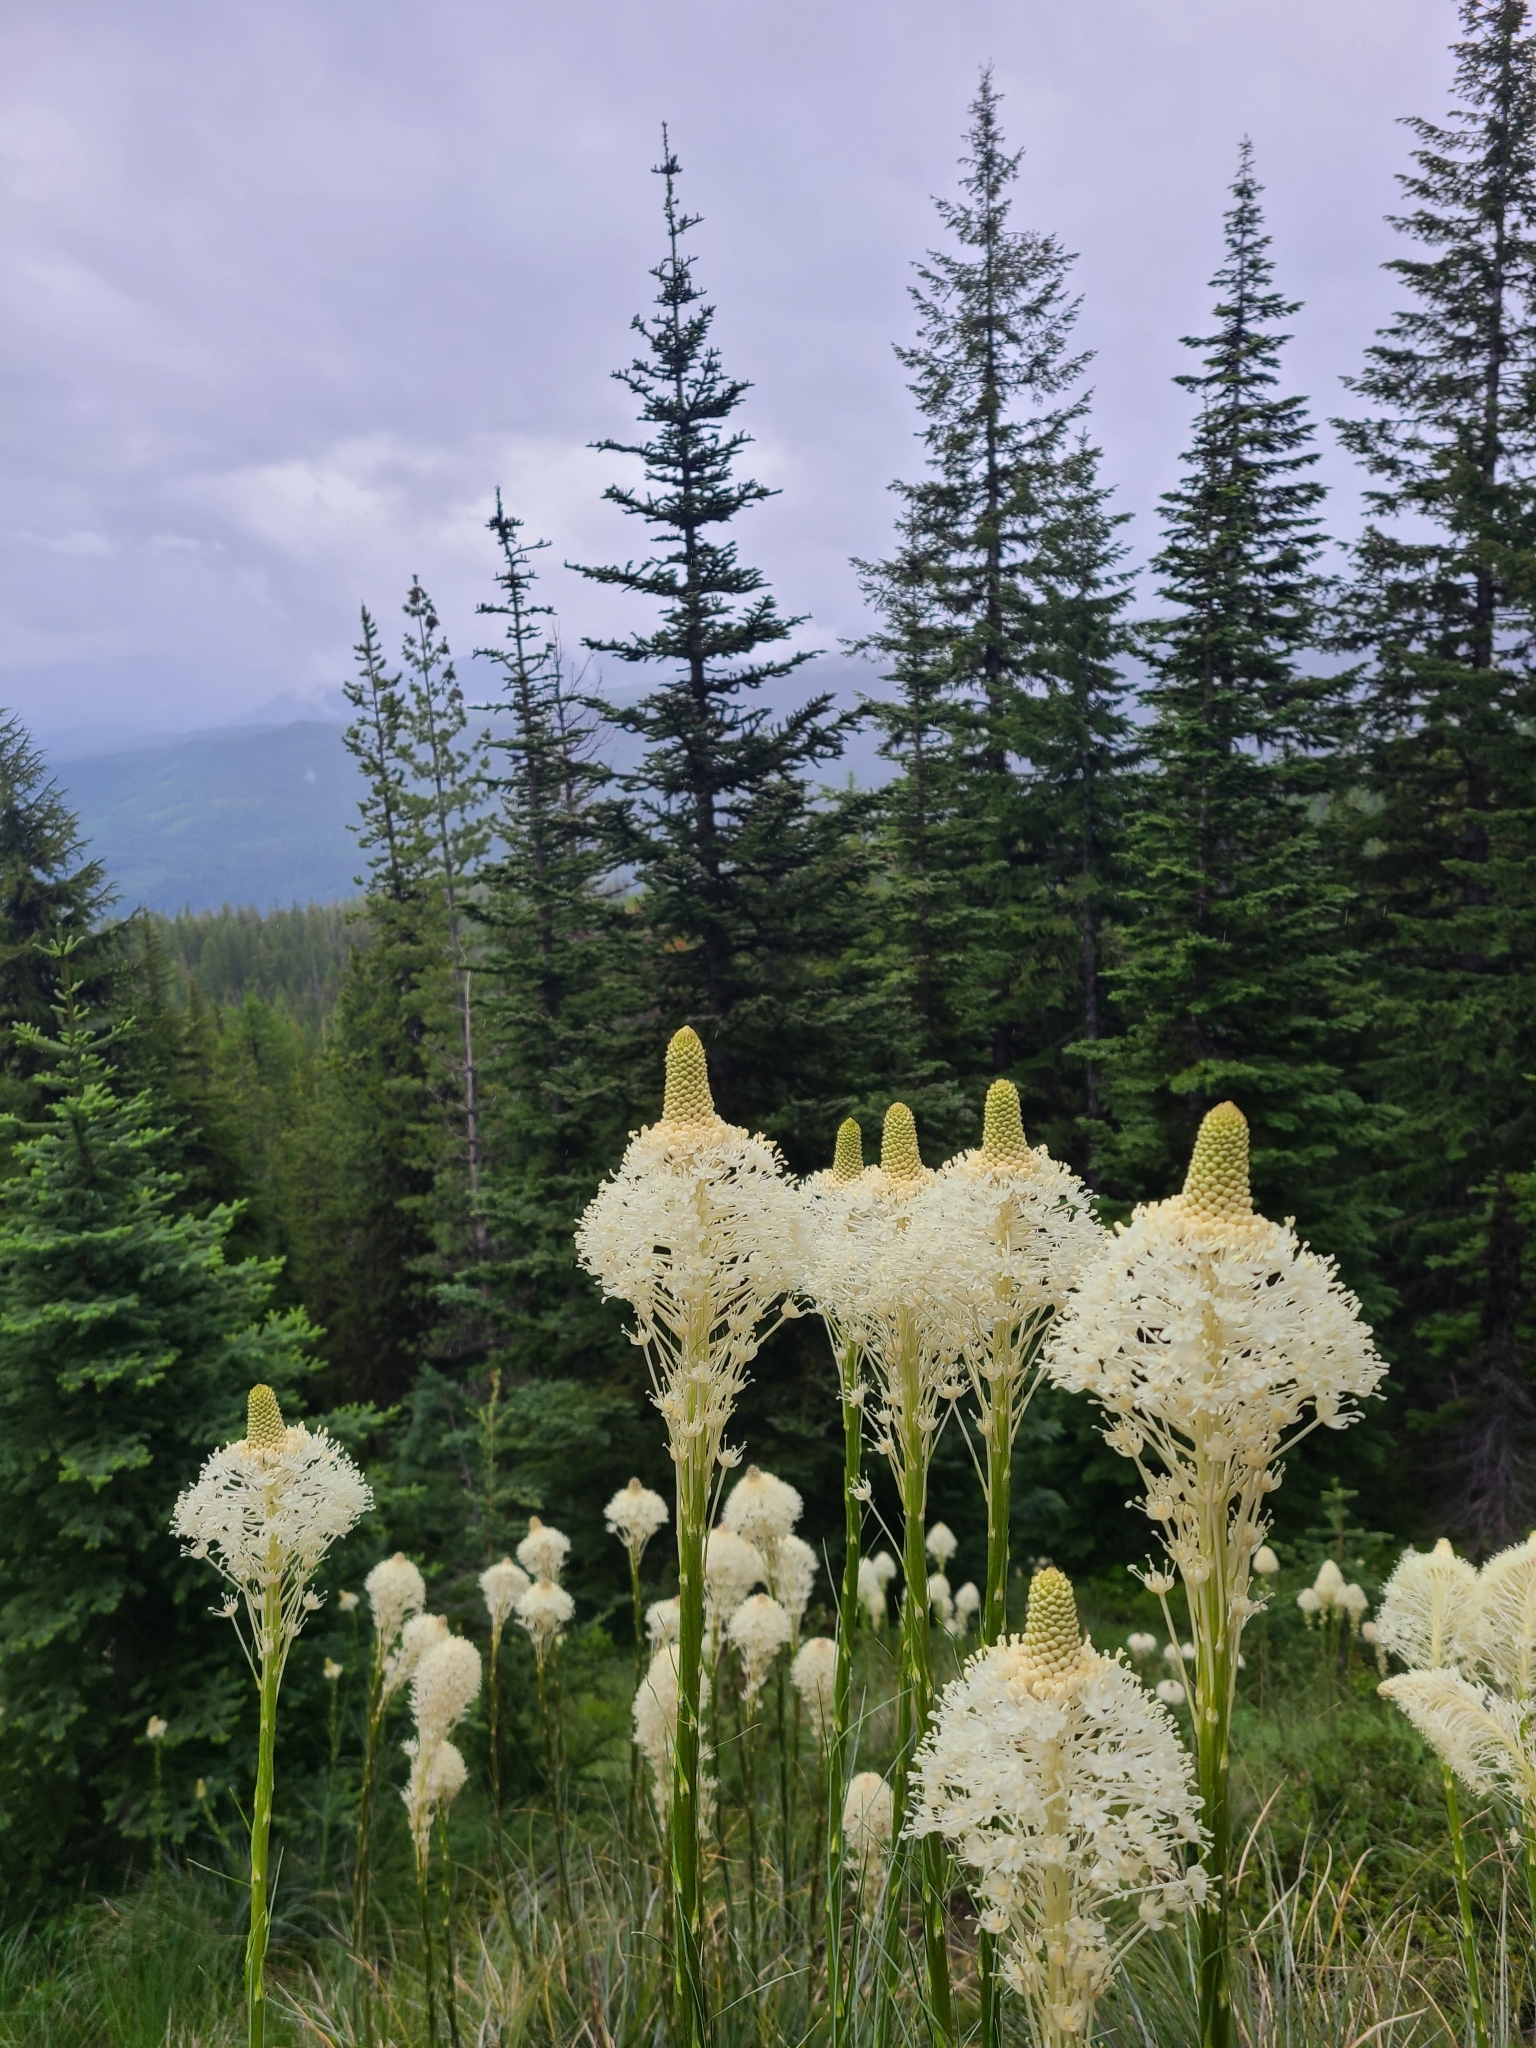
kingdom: Plantae
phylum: Tracheophyta
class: Liliopsida
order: Liliales
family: Melanthiaceae
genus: Xerophyllum
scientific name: Xerophyllum tenax
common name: Bear-grass
